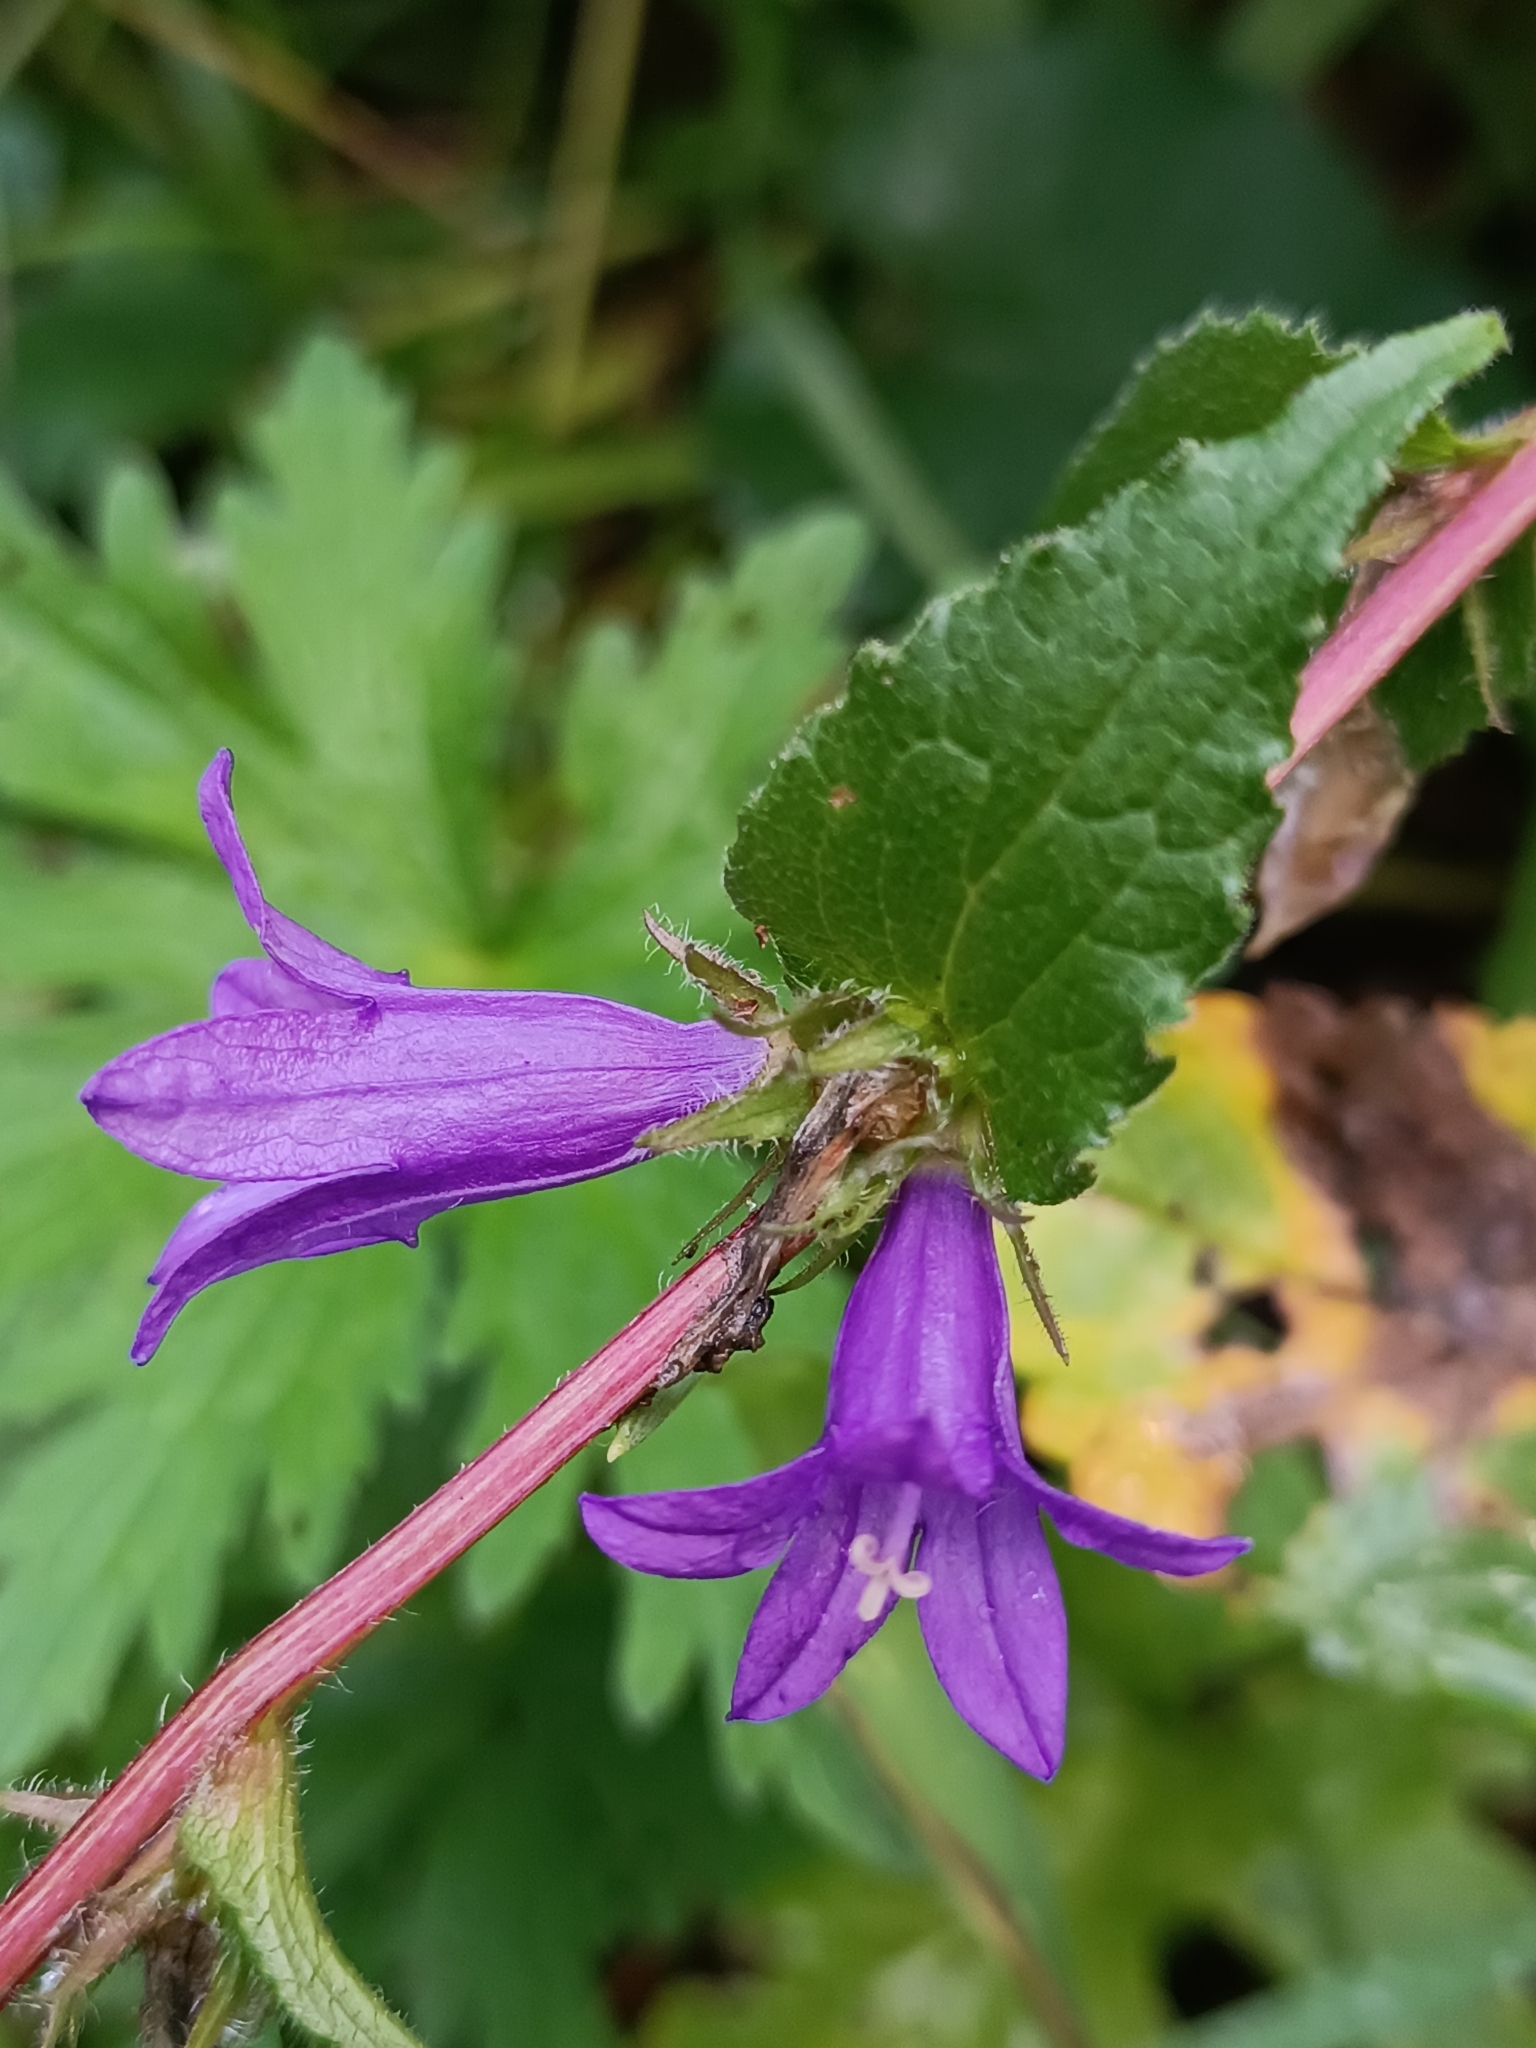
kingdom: Plantae
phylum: Tracheophyta
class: Magnoliopsida
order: Asterales
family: Campanulaceae
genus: Campanula
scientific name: Campanula glomerata
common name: Clustered bellflower
